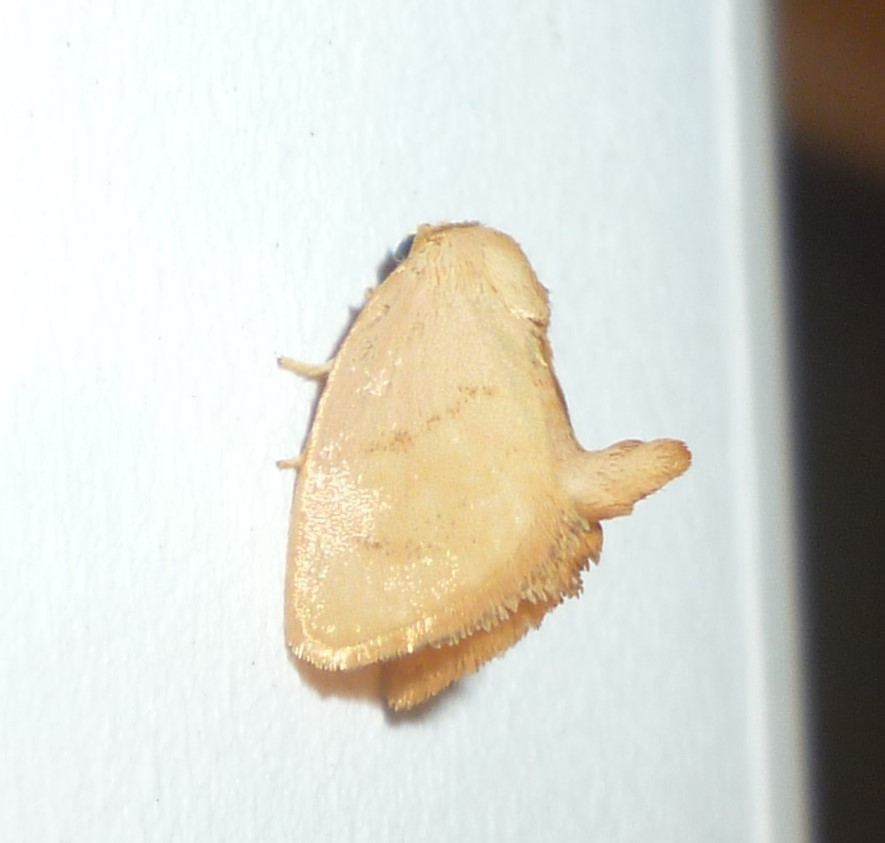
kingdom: Animalia
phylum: Arthropoda
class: Insecta
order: Lepidoptera
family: Limacodidae
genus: Tortricidia
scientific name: Tortricidia pallida
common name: Red-crossed button slug moth
